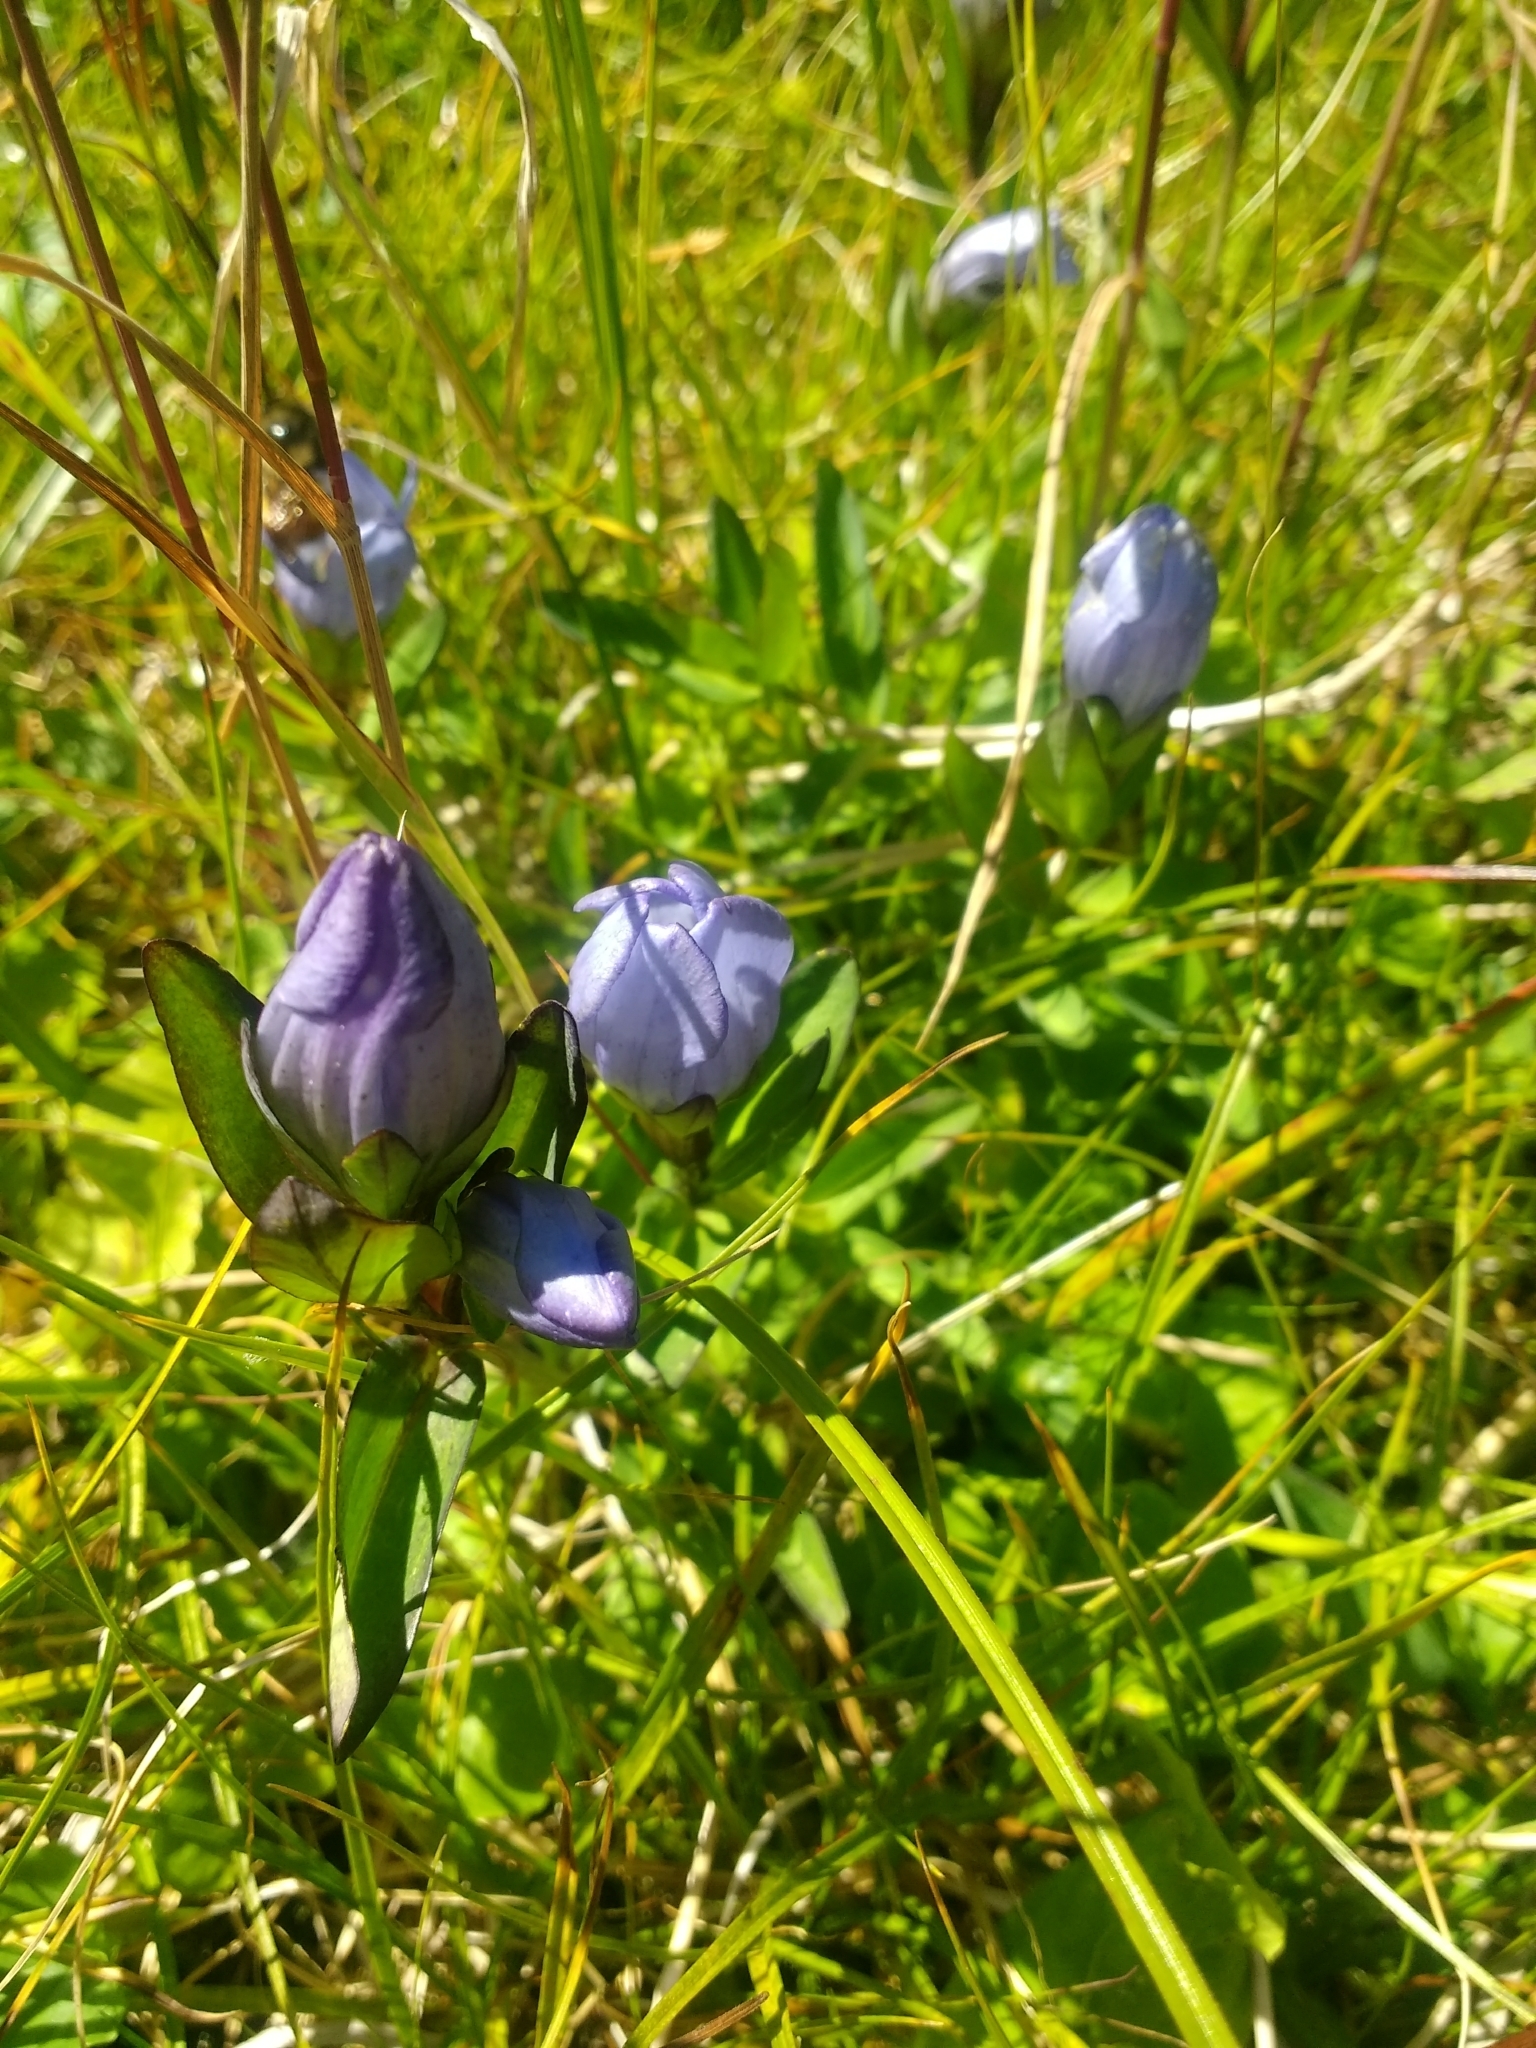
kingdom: Plantae
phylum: Tracheophyta
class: Magnoliopsida
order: Gentianales
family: Gentianaceae
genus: Gentiana
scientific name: Gentiana sceptrum
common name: Pacific gentian
